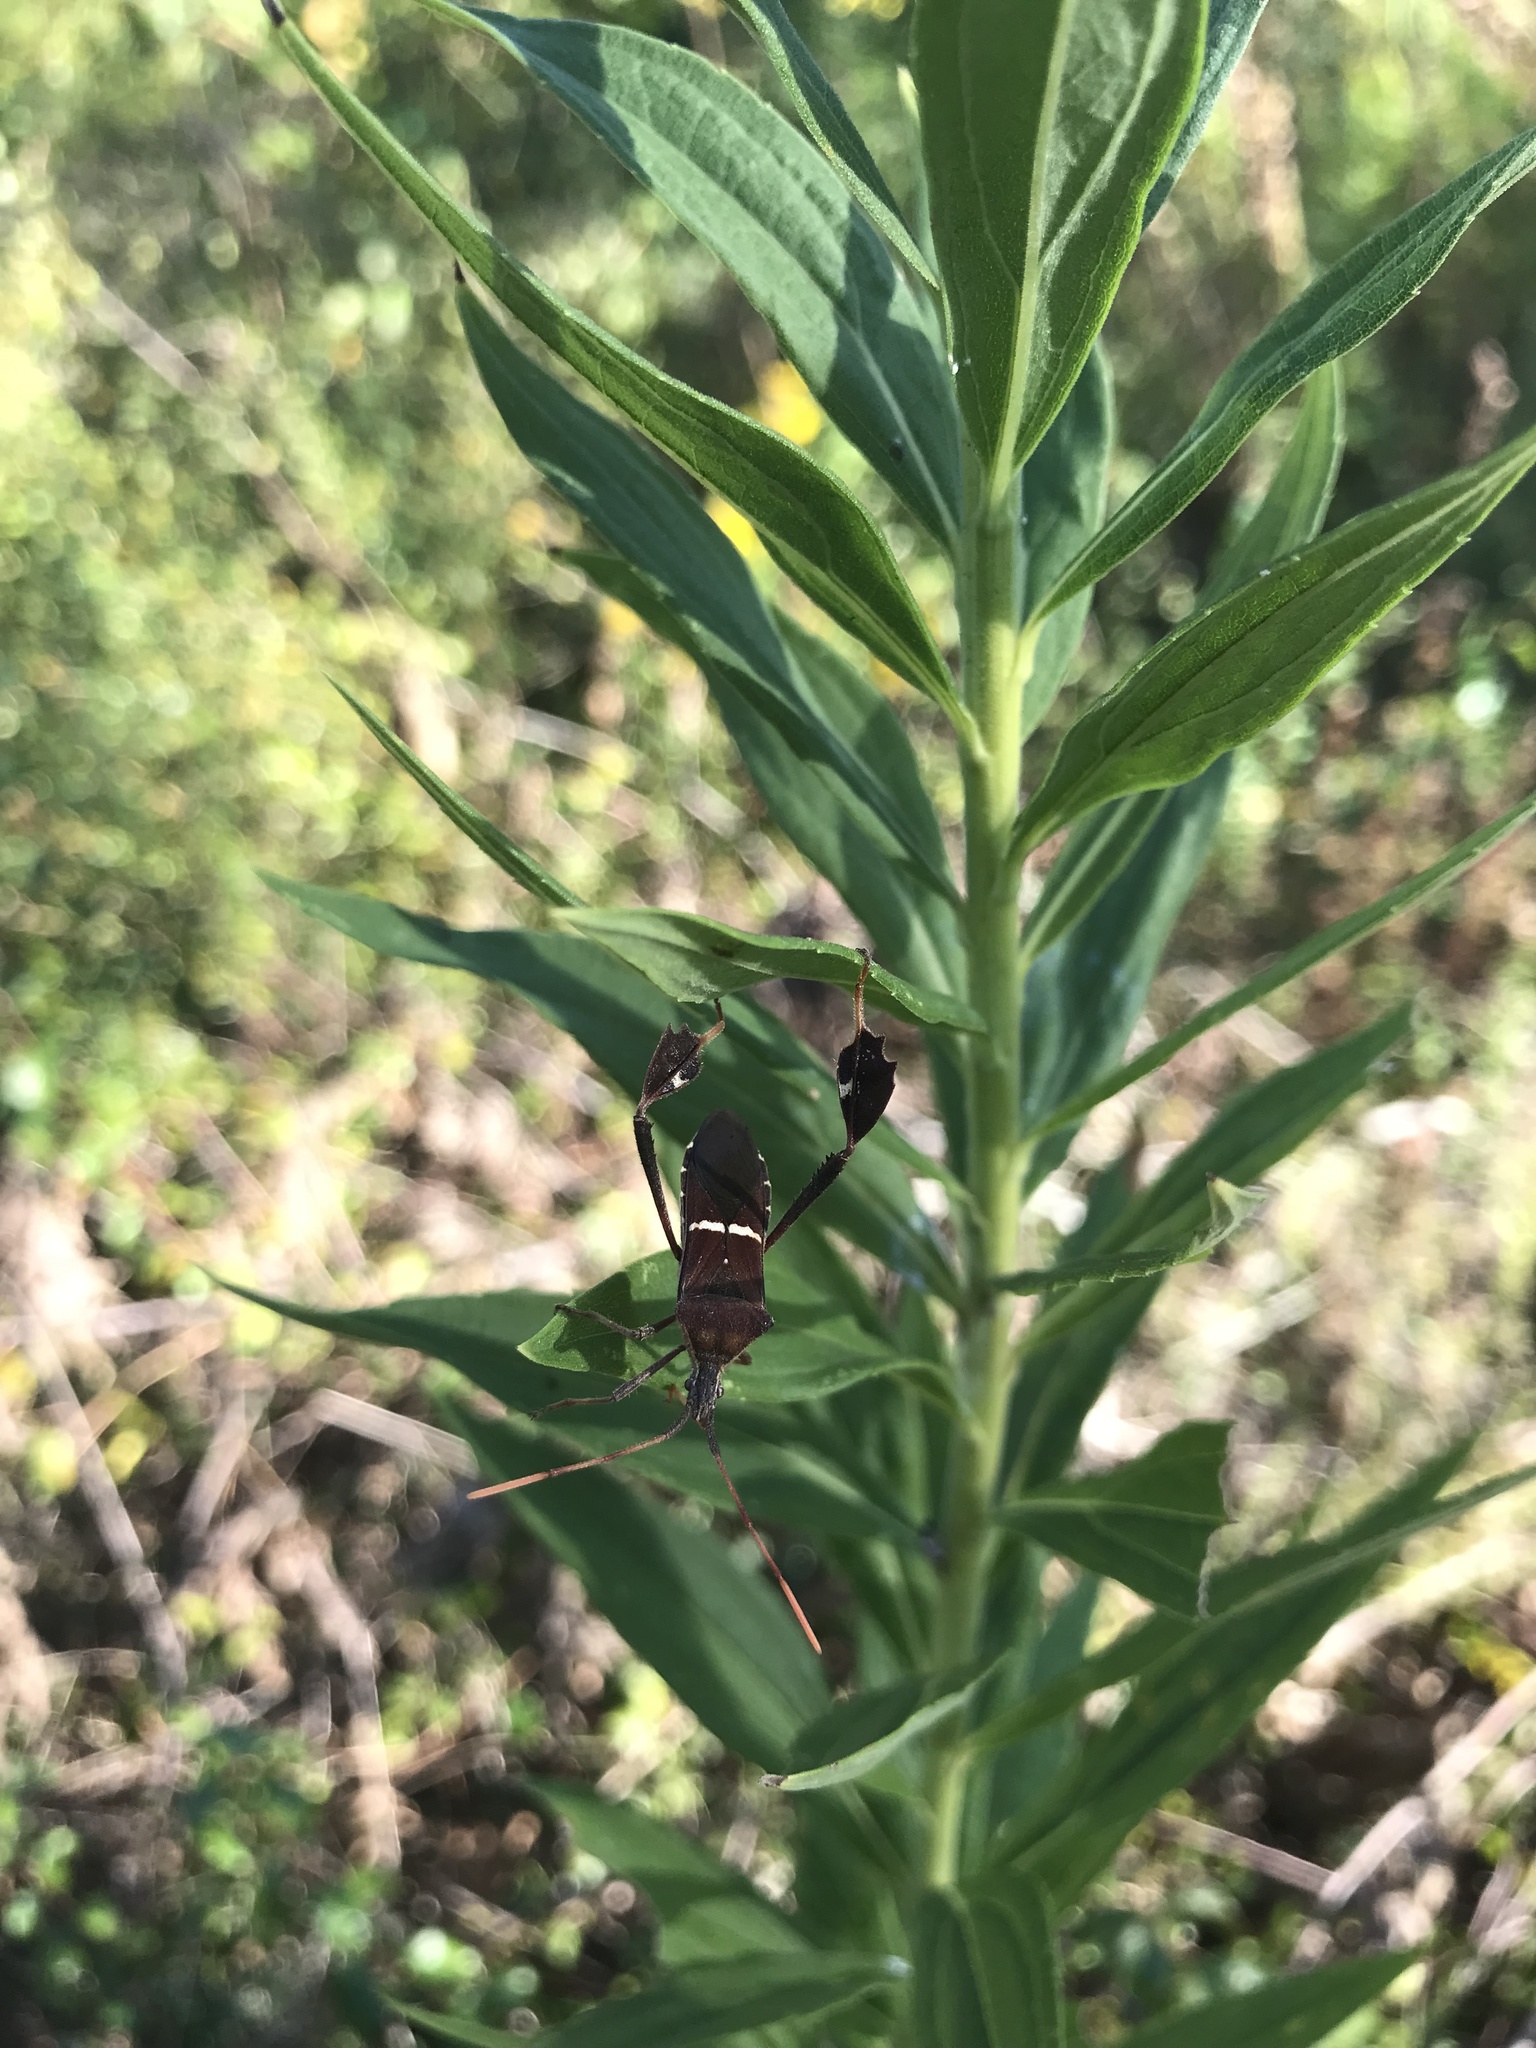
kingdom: Animalia
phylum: Arthropoda
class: Insecta
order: Hemiptera
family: Coreidae
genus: Leptoglossus
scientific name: Leptoglossus phyllopus
